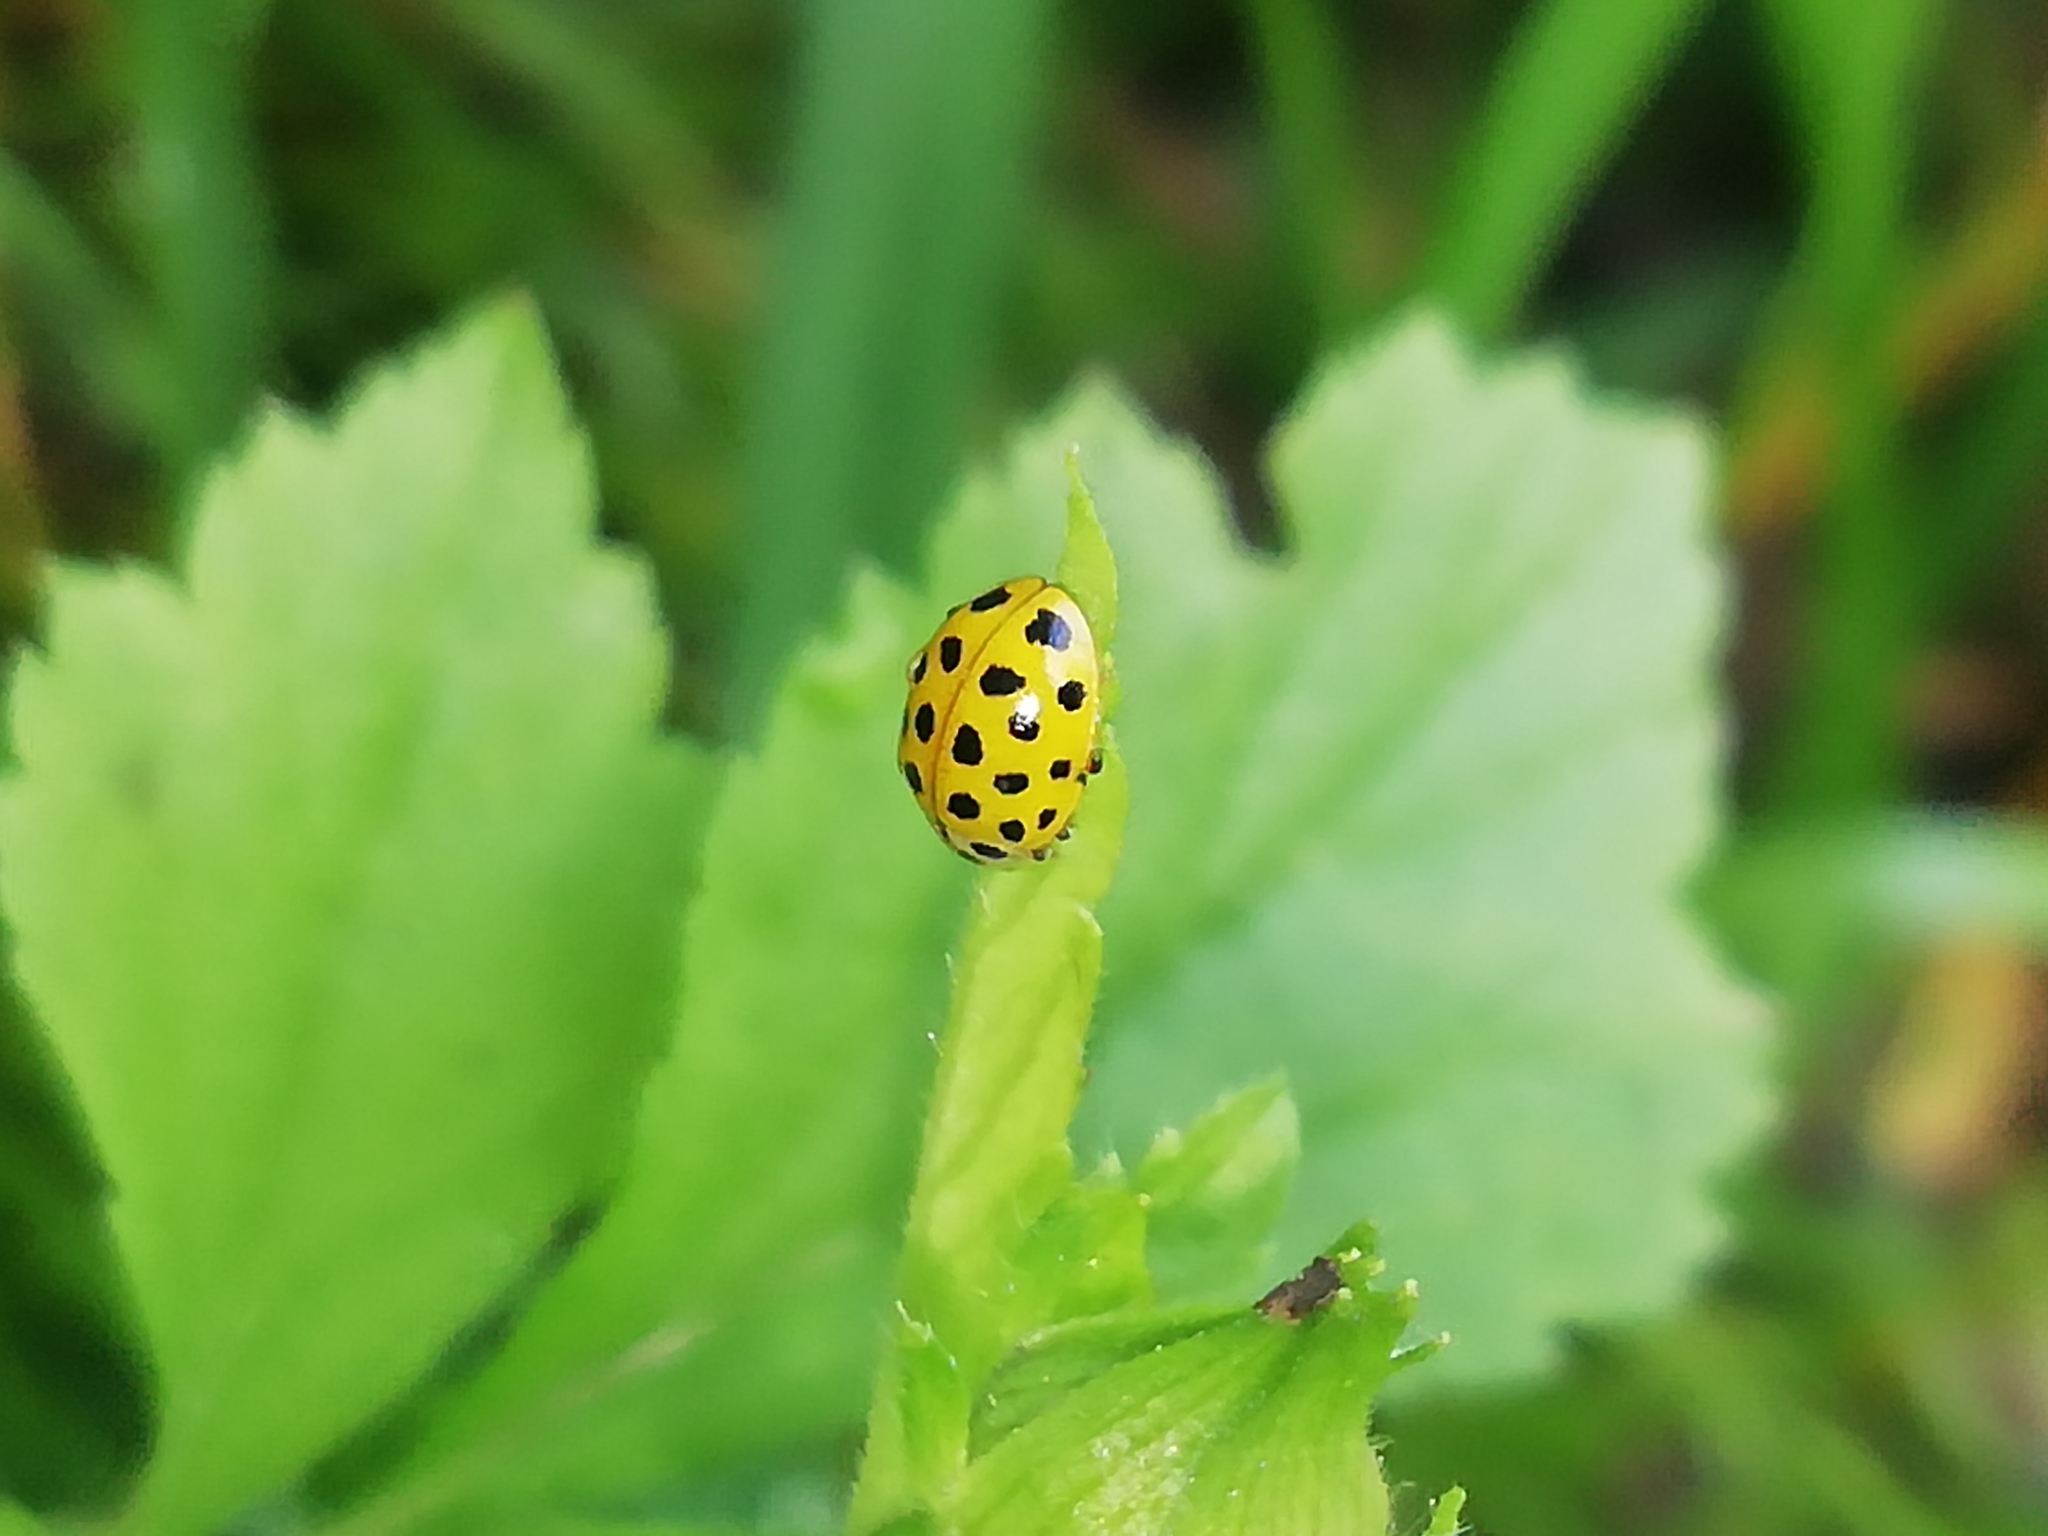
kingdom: Animalia
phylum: Arthropoda
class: Insecta
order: Coleoptera
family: Coccinellidae
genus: Psyllobora
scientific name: Psyllobora vigintiduopunctata
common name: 22-spot ladybird
